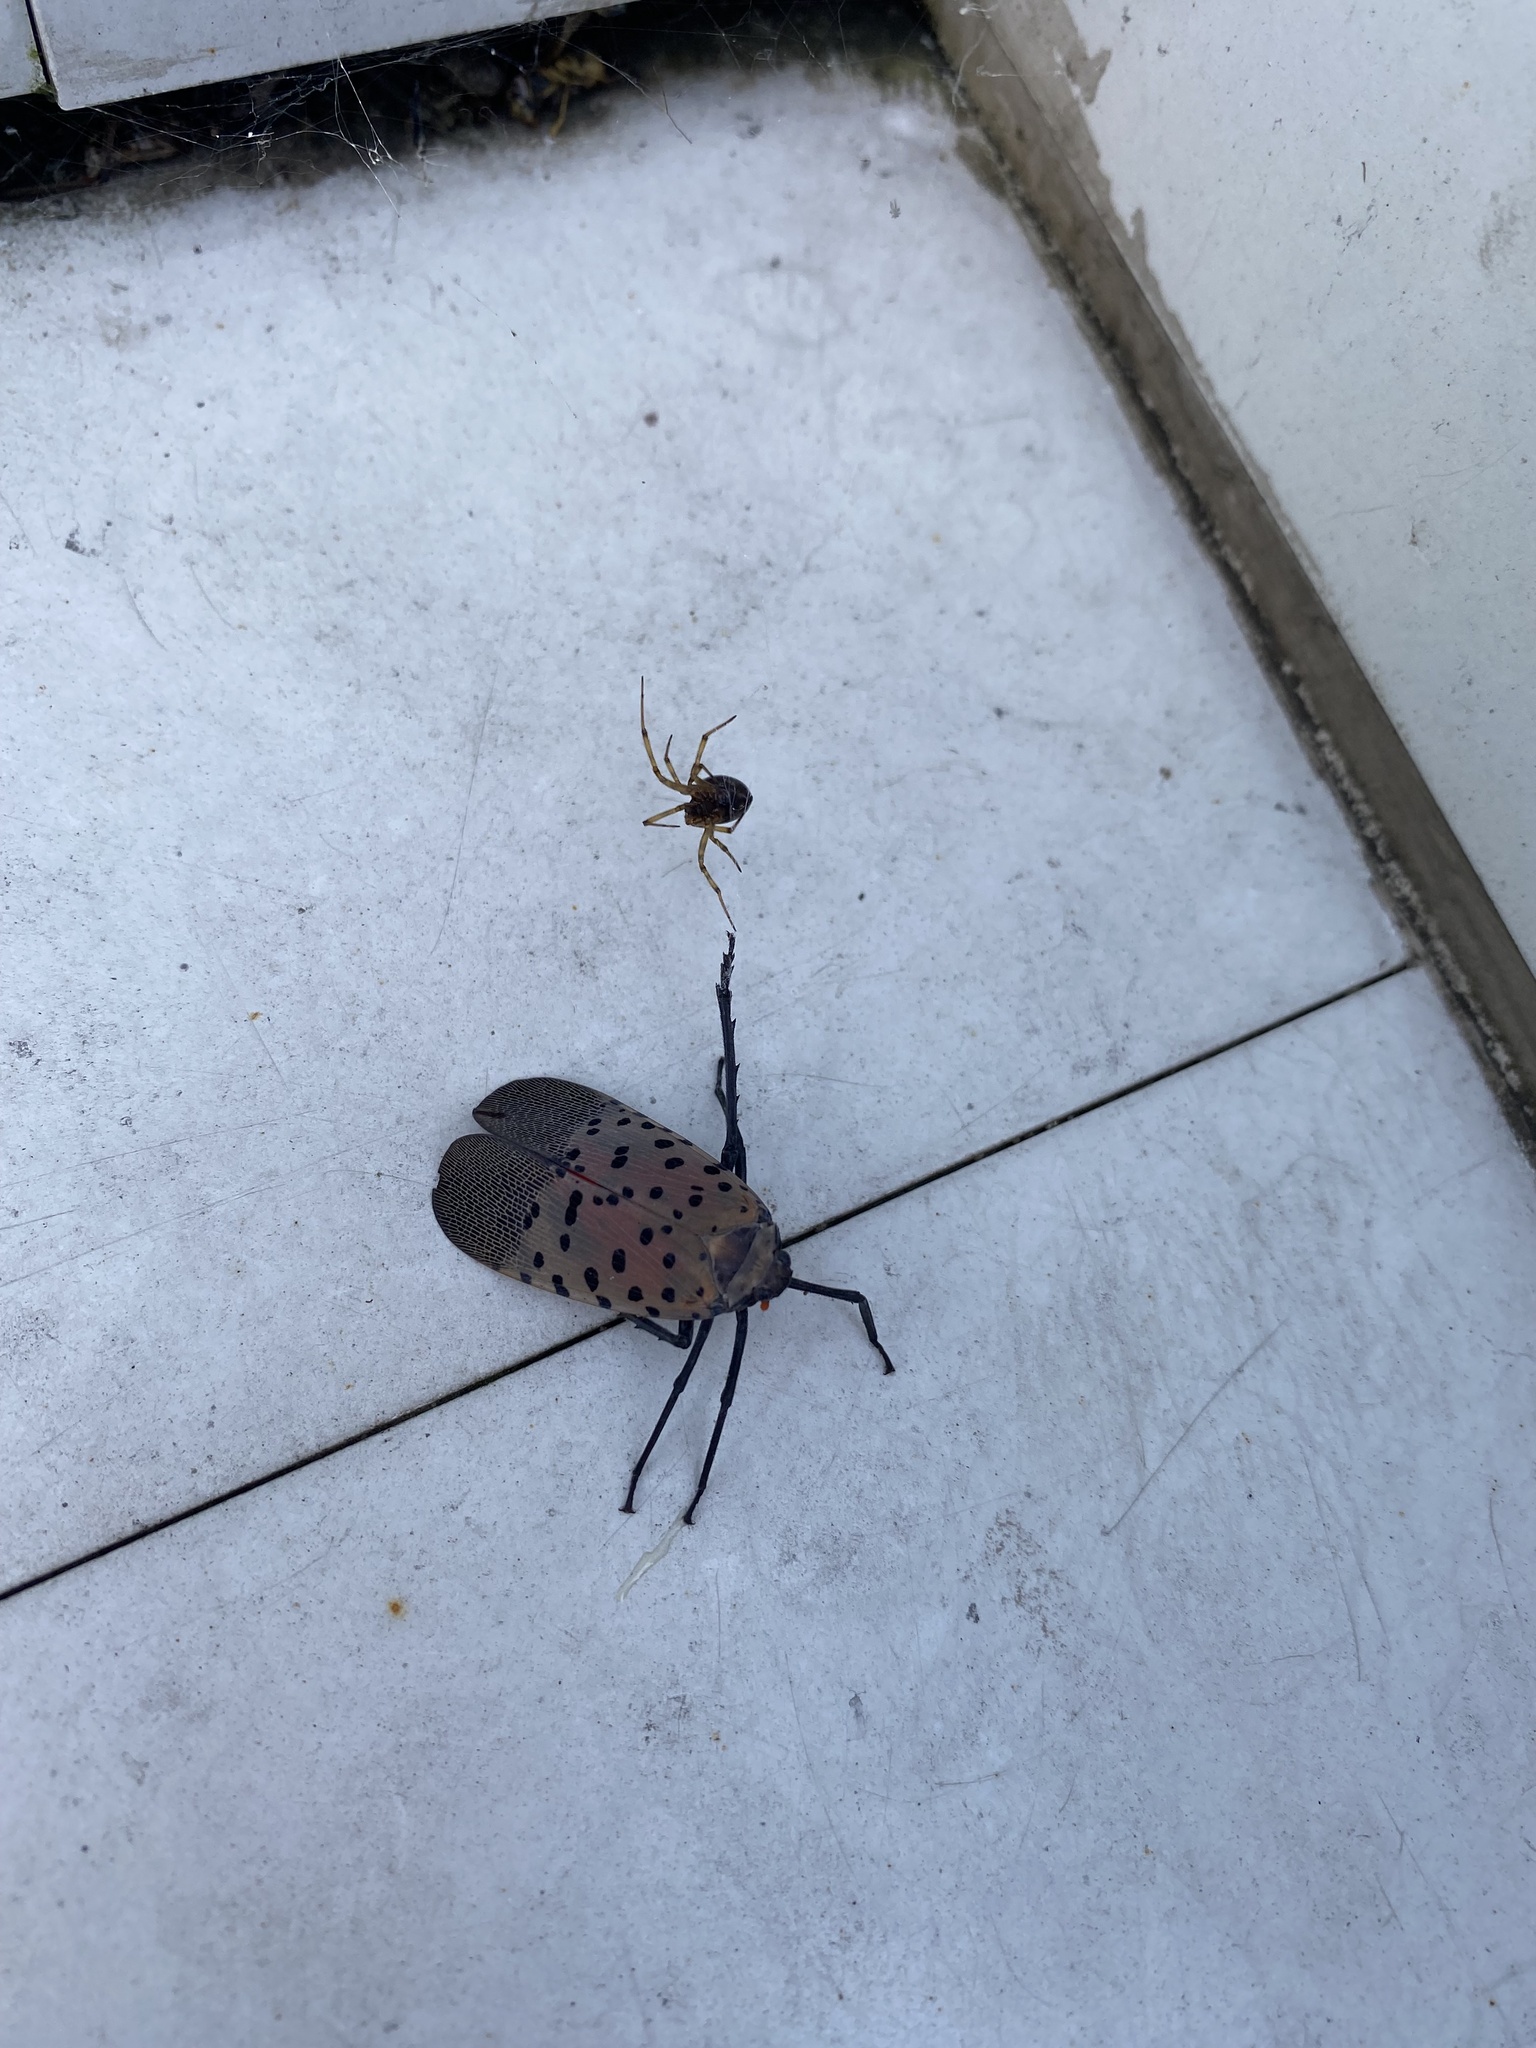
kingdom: Animalia
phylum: Arthropoda
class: Insecta
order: Hemiptera
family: Fulgoridae
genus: Lycorma
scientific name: Lycorma delicatula
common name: Spotted lanternfly
